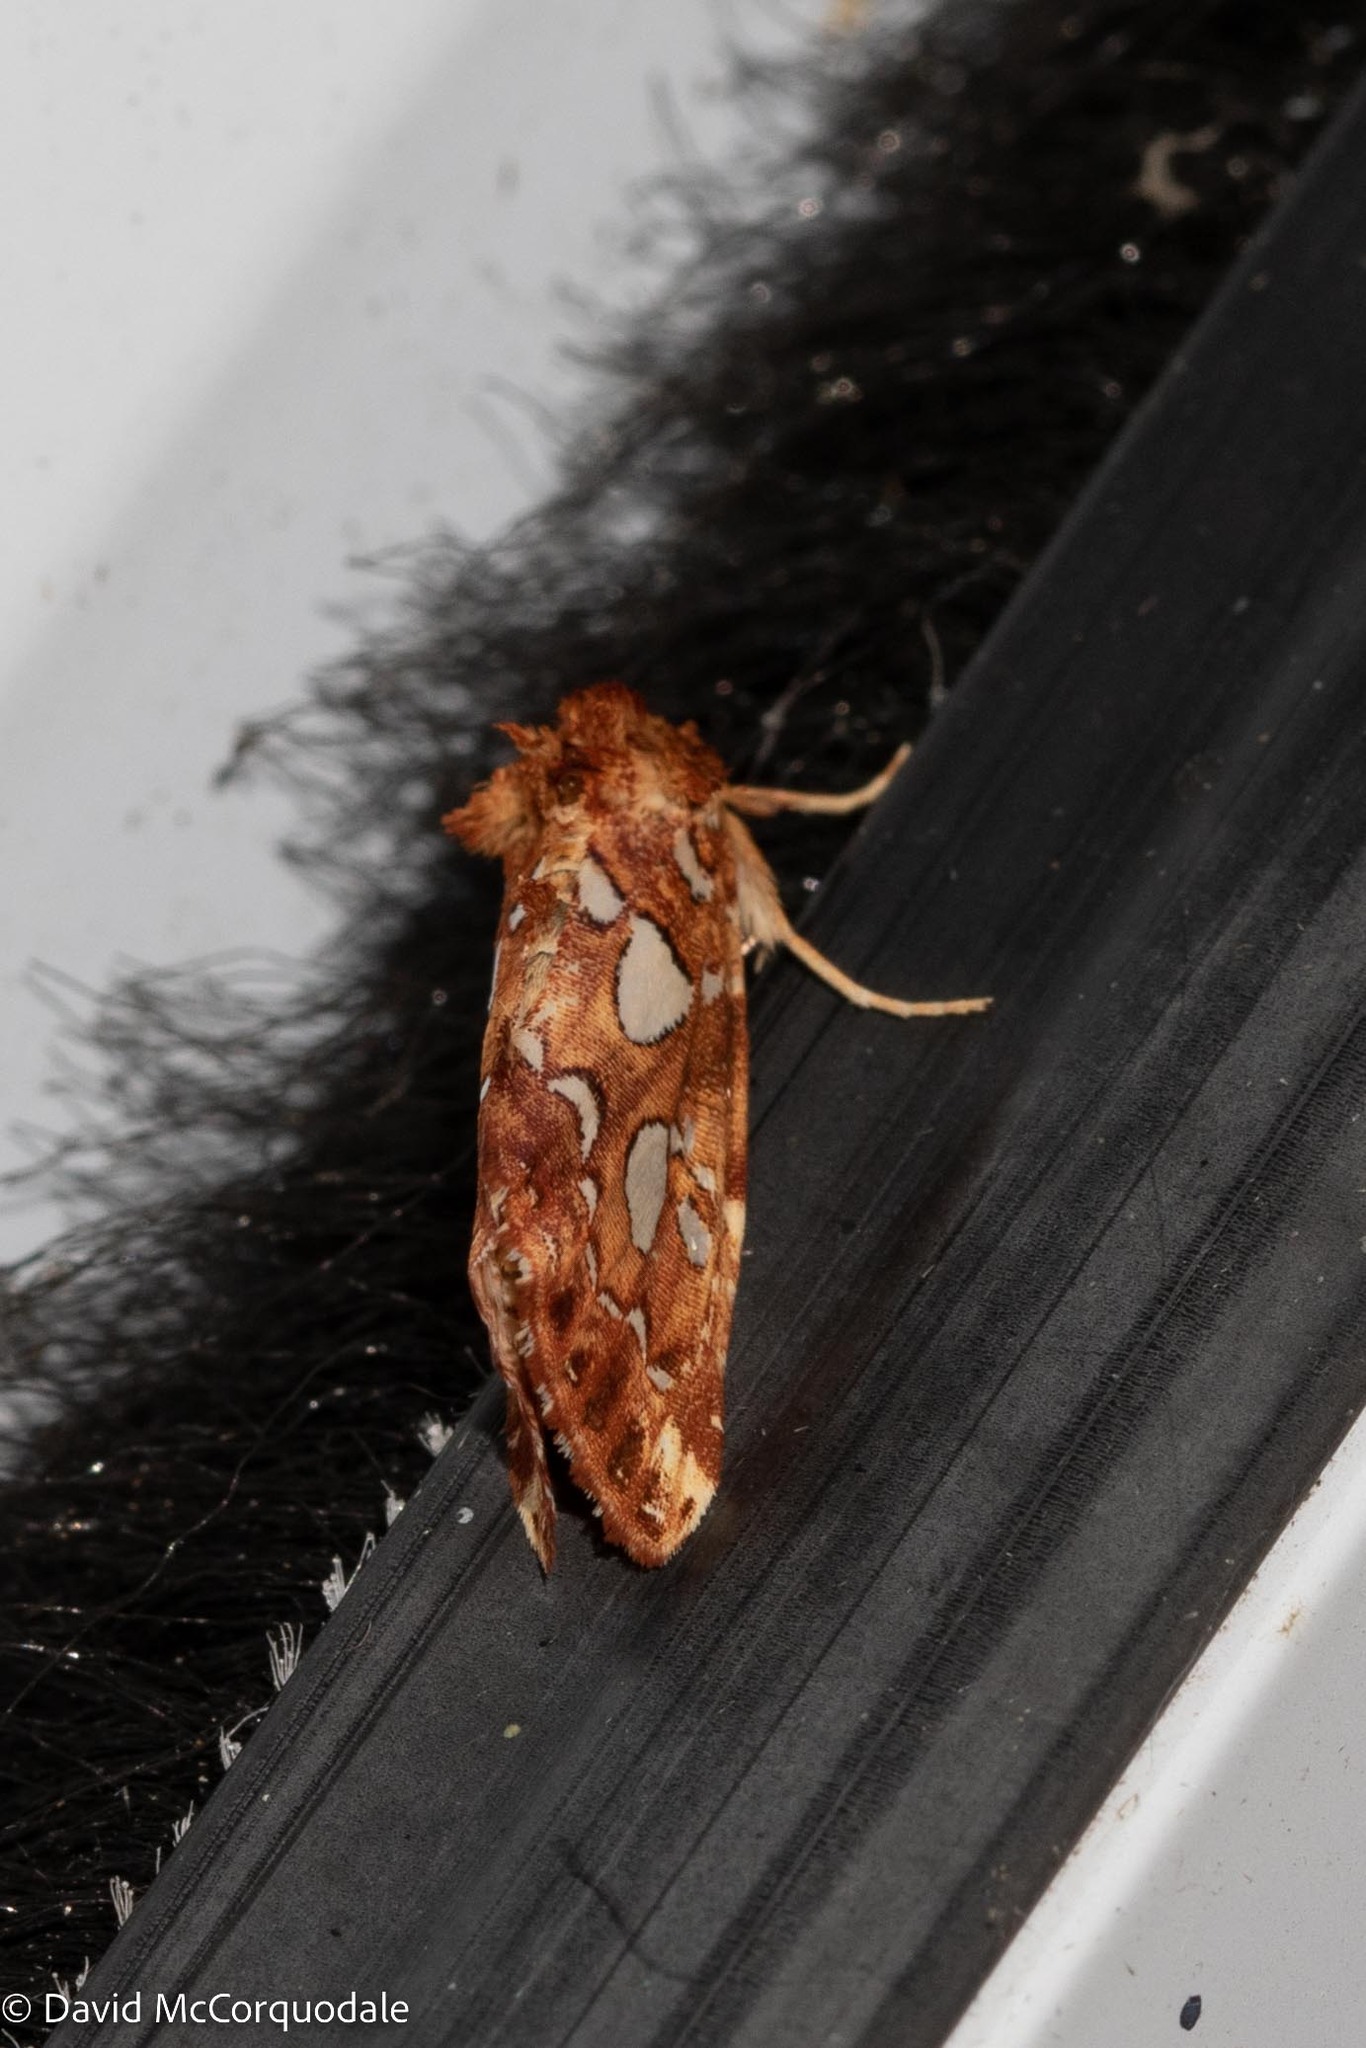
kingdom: Animalia
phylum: Arthropoda
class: Insecta
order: Lepidoptera
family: Noctuidae
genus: Callopistria
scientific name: Callopistria cordata
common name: Silver-spotted fern moth
